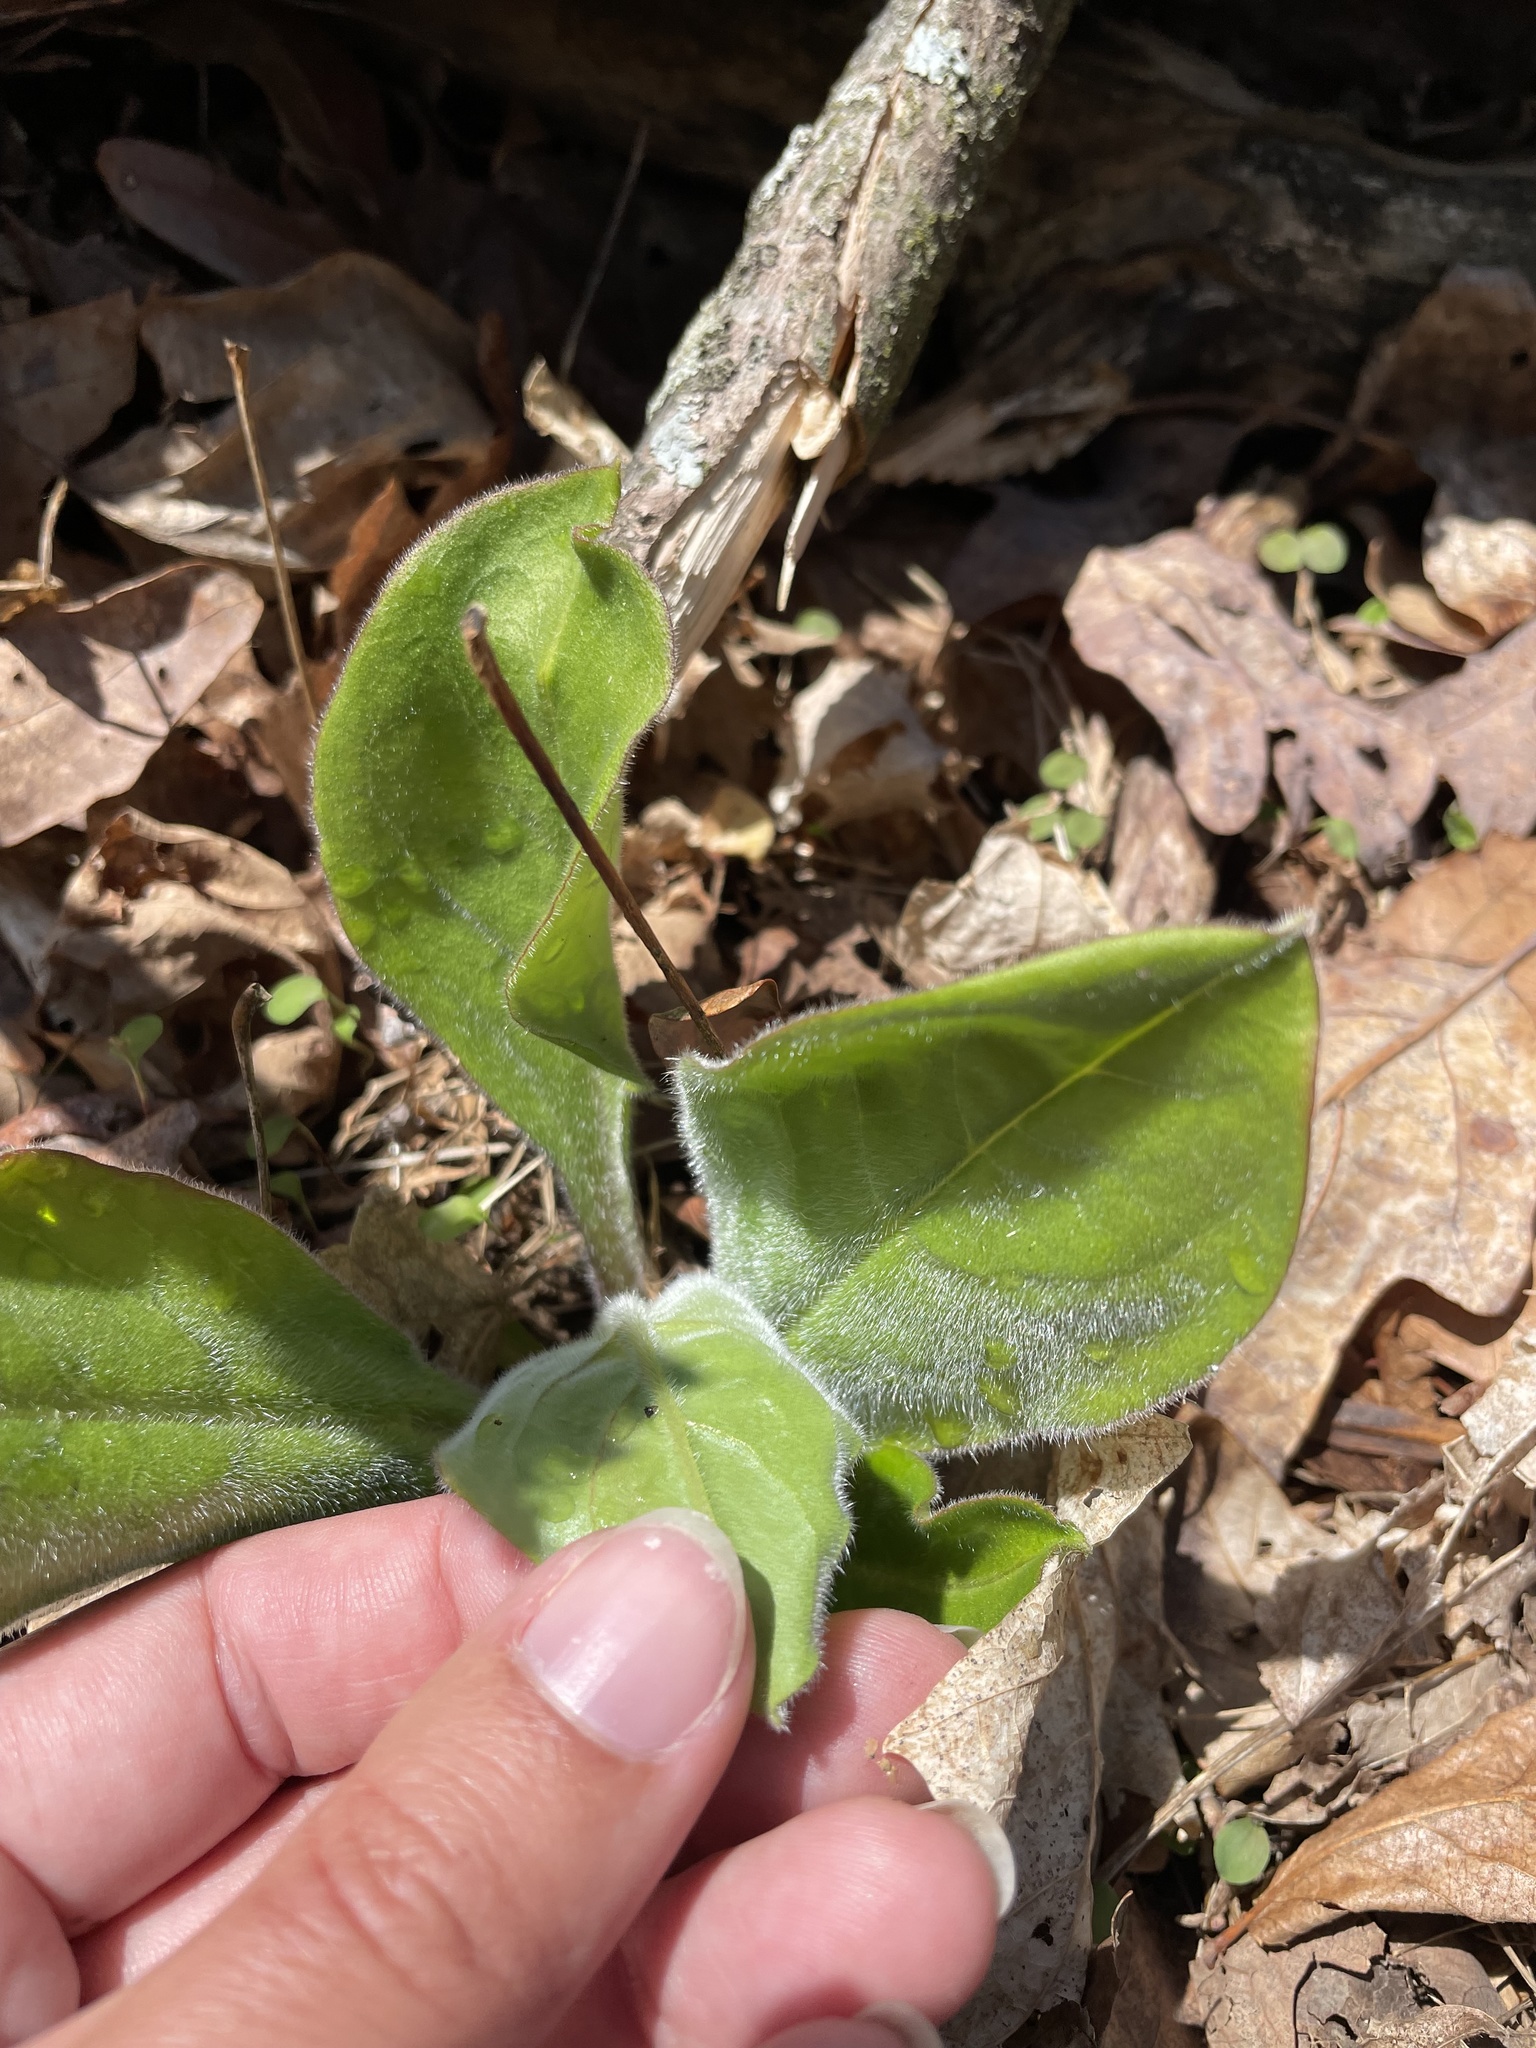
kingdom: Plantae
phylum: Tracheophyta
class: Magnoliopsida
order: Boraginales
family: Boraginaceae
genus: Andersonglossum
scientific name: Andersonglossum virginianum
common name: Wild comfrey
